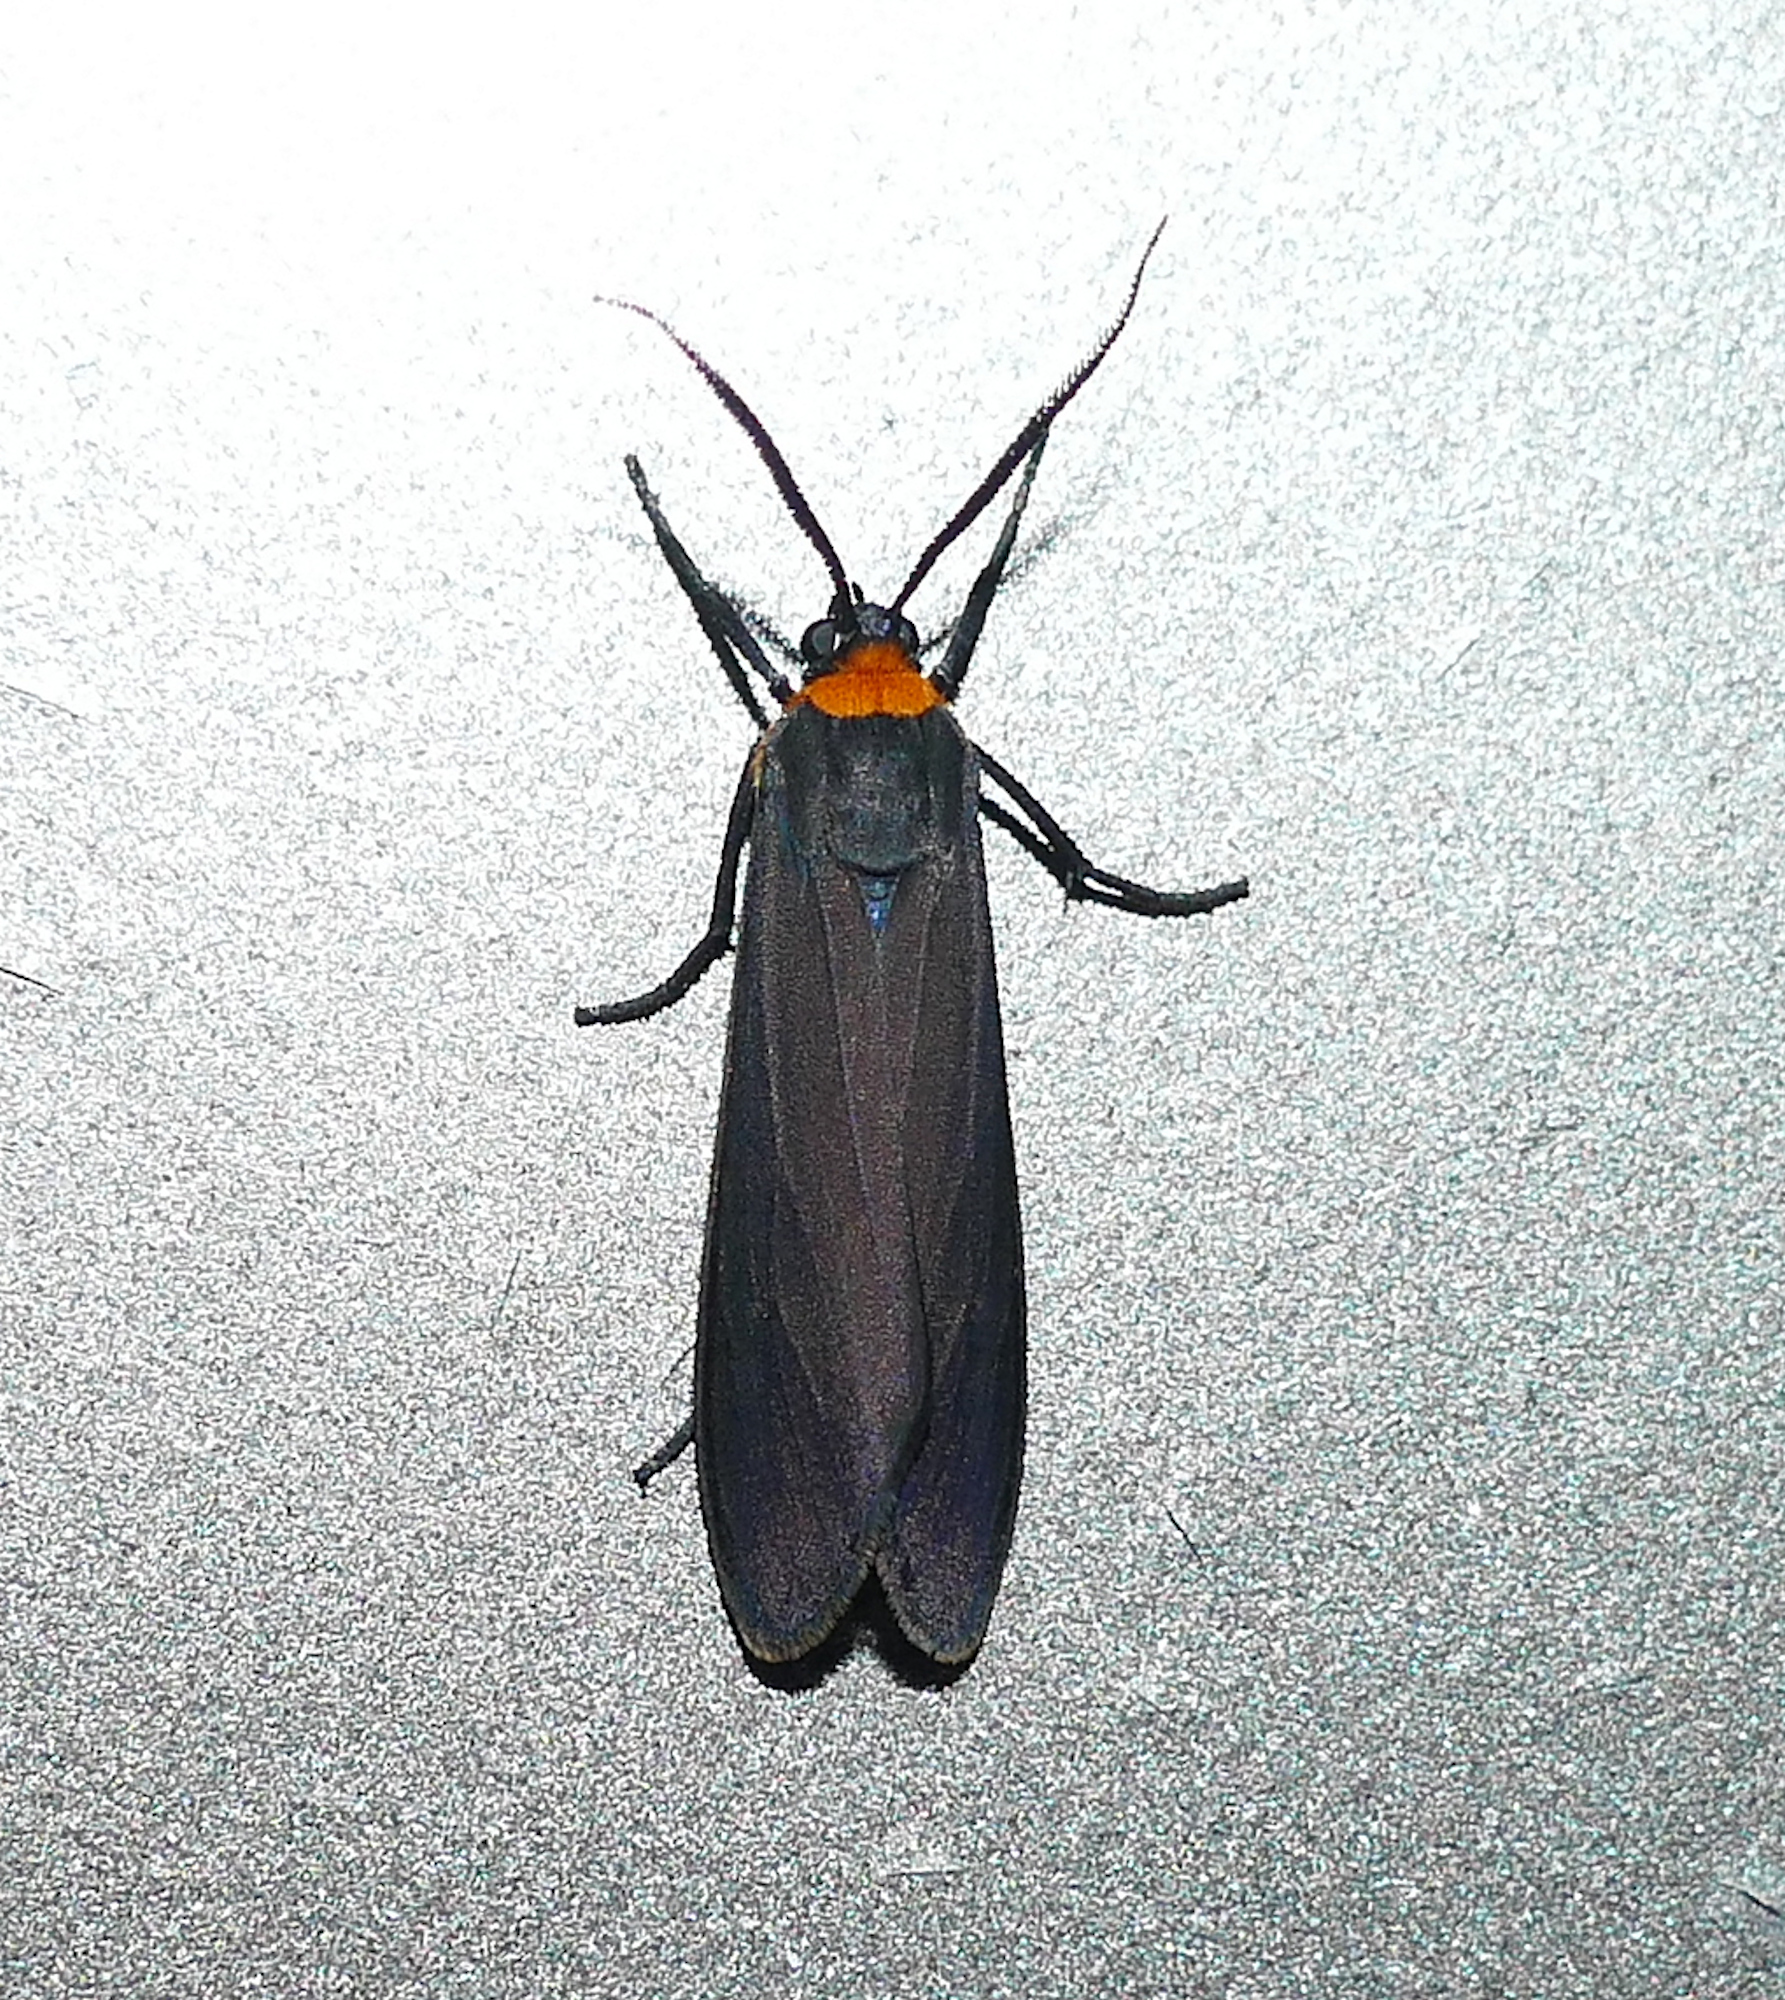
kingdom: Animalia
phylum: Arthropoda
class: Insecta
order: Lepidoptera
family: Erebidae
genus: Cisseps
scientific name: Cisseps fulvicollis
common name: Yellow-collared scape moth
